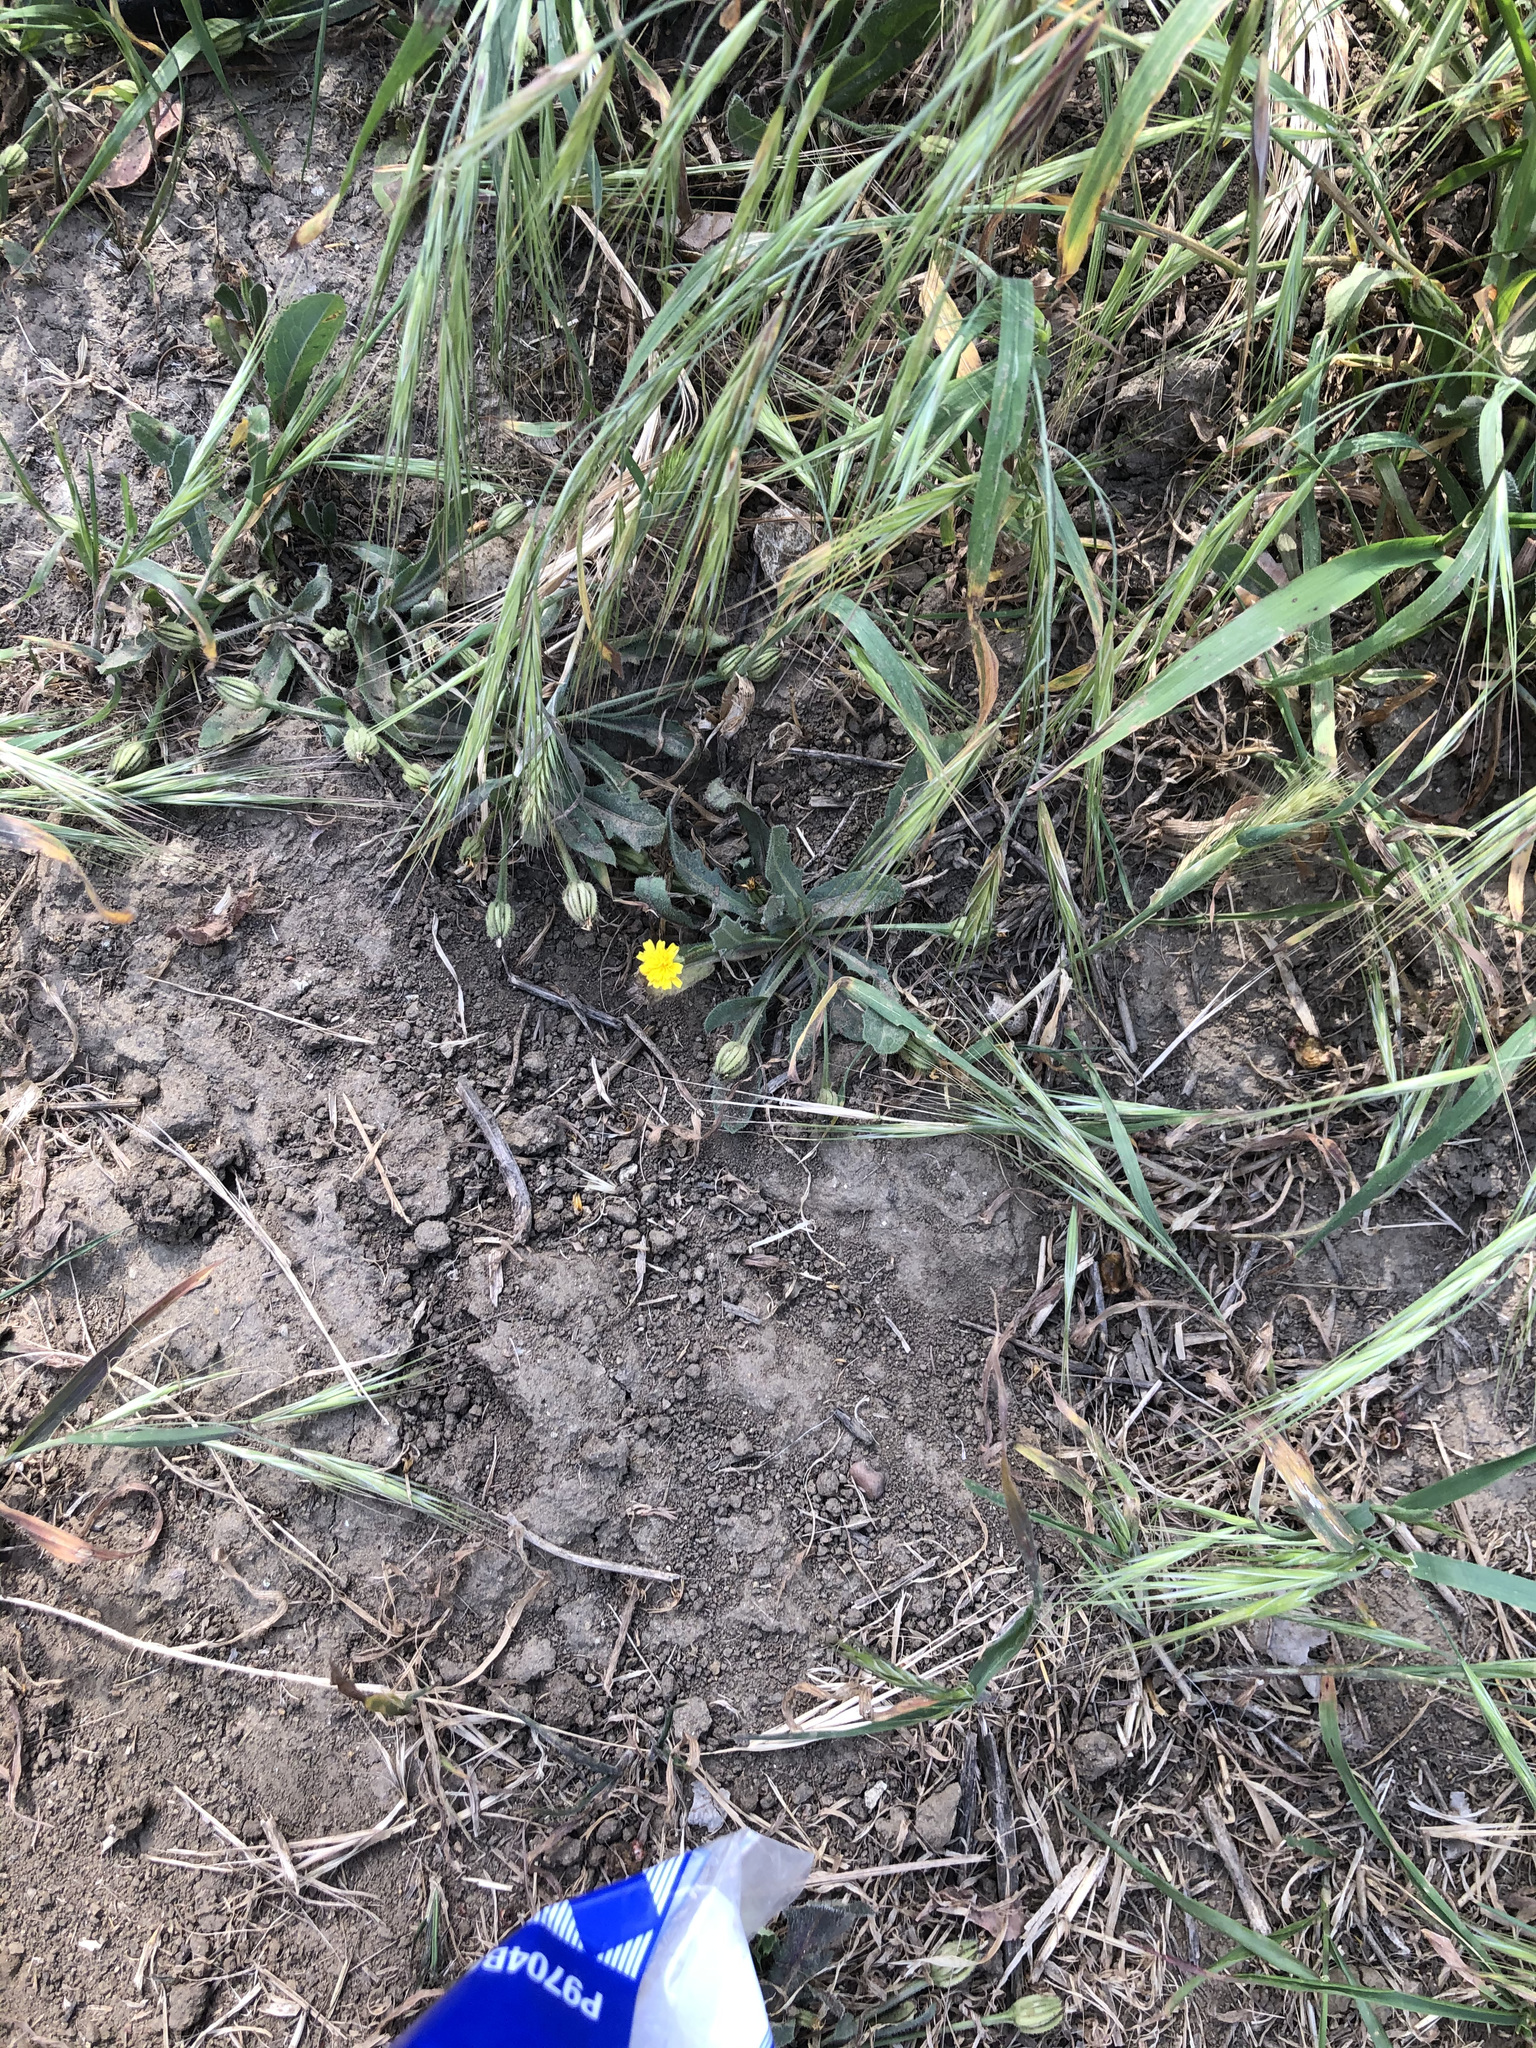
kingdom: Plantae
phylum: Tracheophyta
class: Magnoliopsida
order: Asterales
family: Asteraceae
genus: Hedypnois
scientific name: Hedypnois rhagadioloides
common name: Cretan weed
